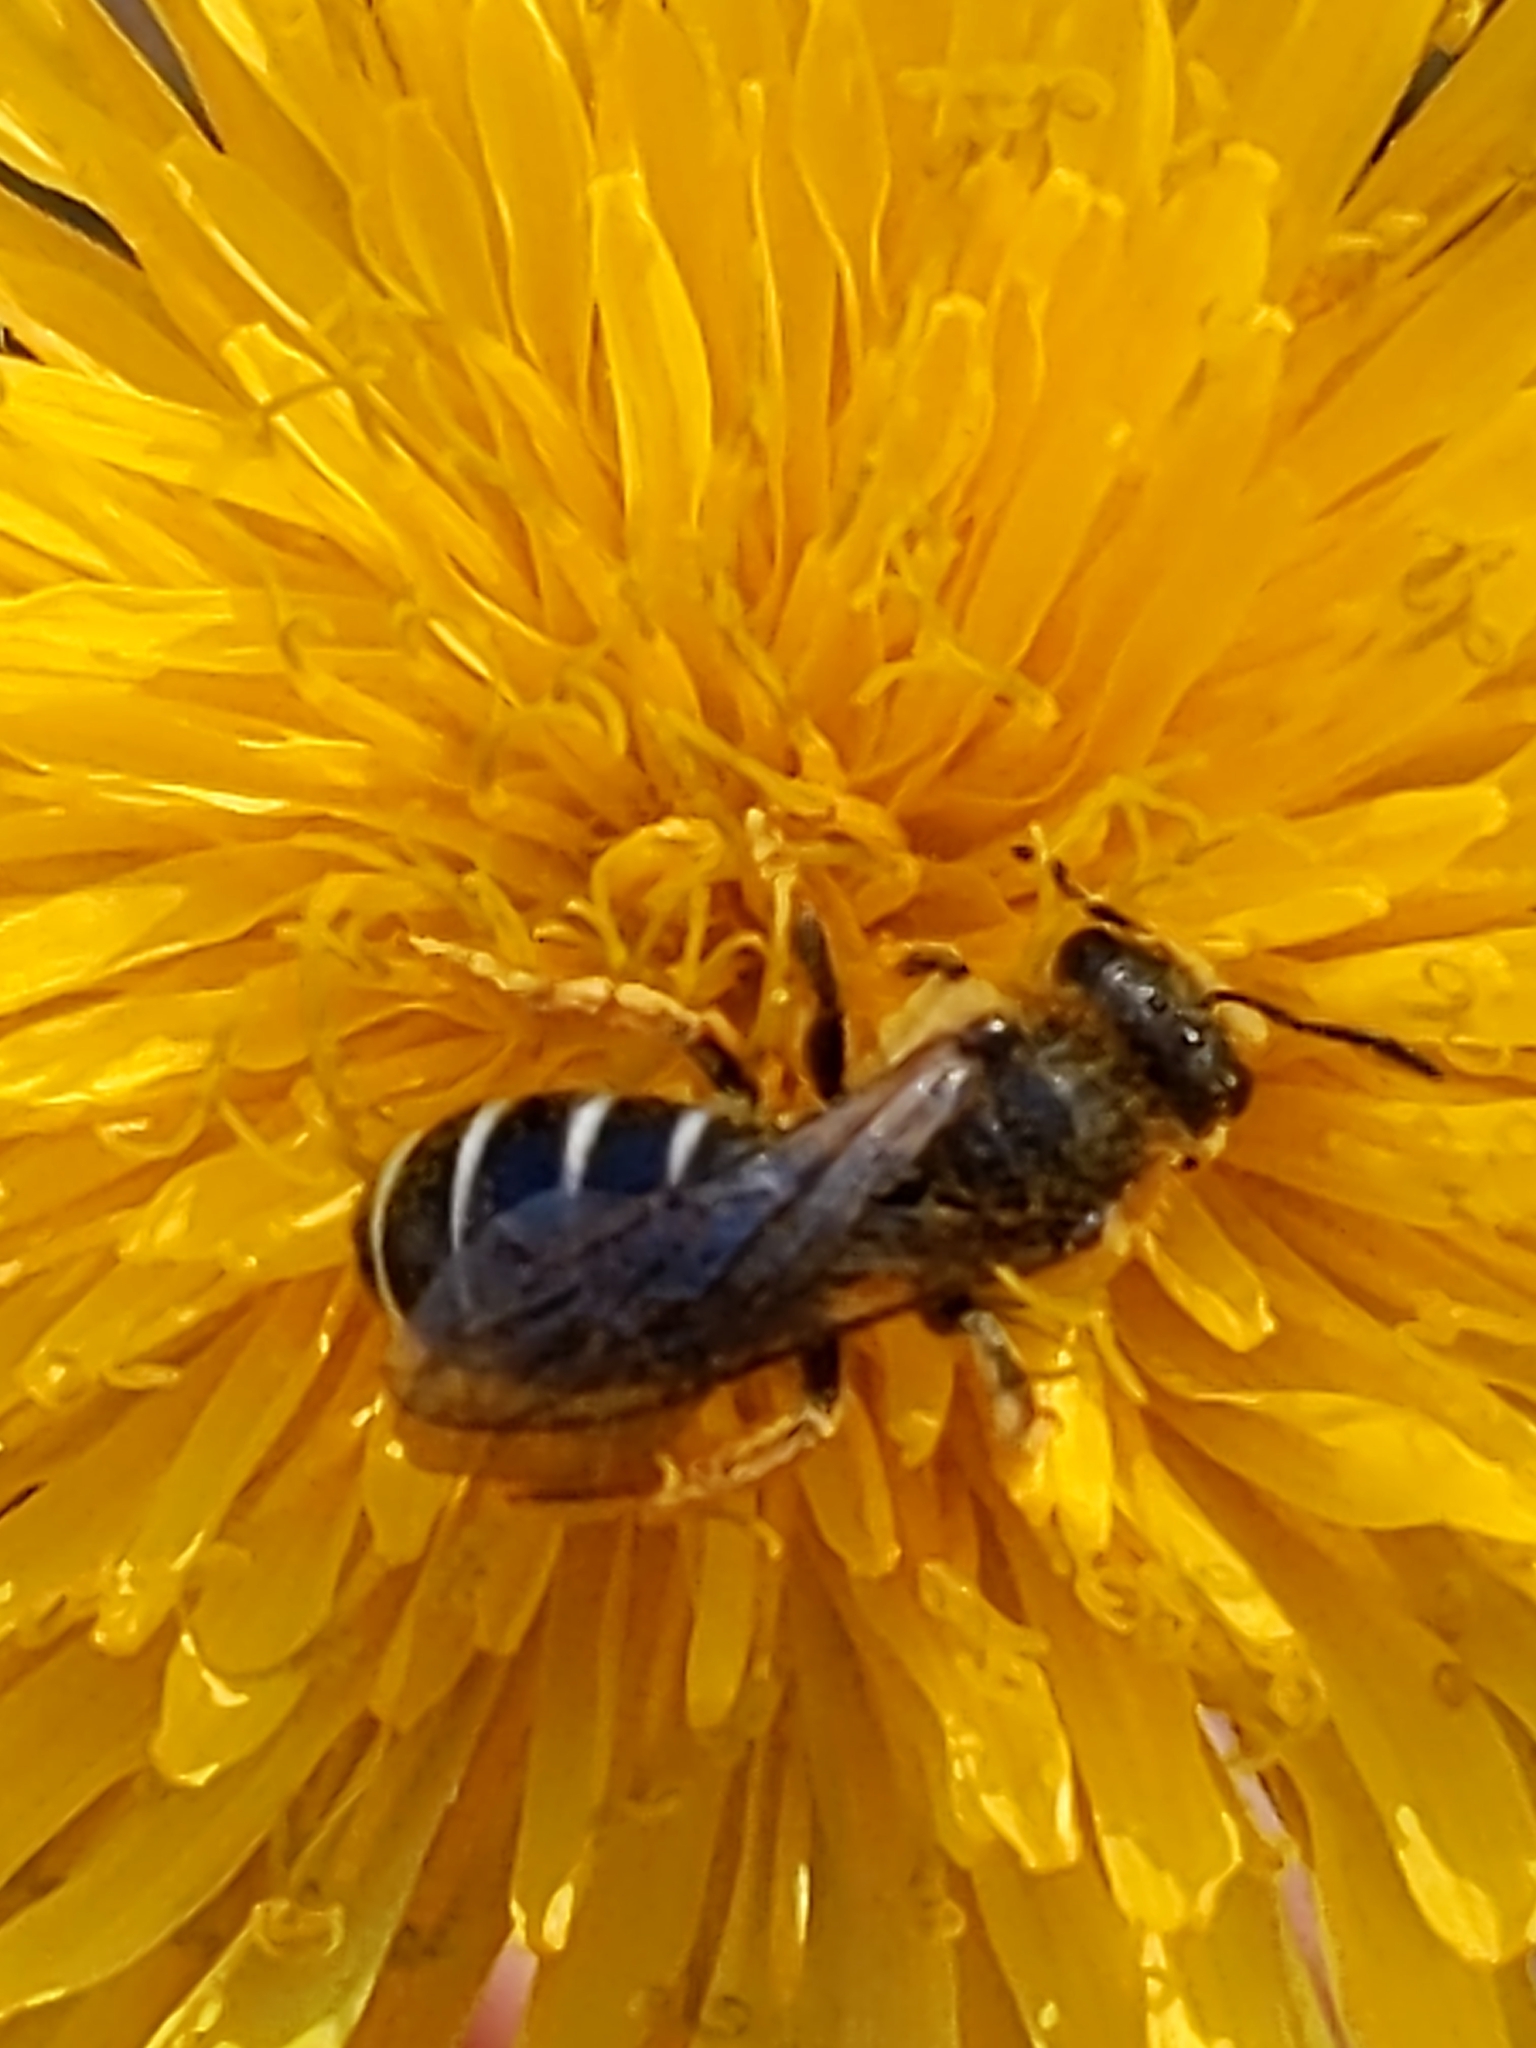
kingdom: Animalia
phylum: Arthropoda
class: Insecta
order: Hymenoptera
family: Halictidae
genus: Halictus
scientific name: Halictus rubicundus
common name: Orange-legged furrow bee
